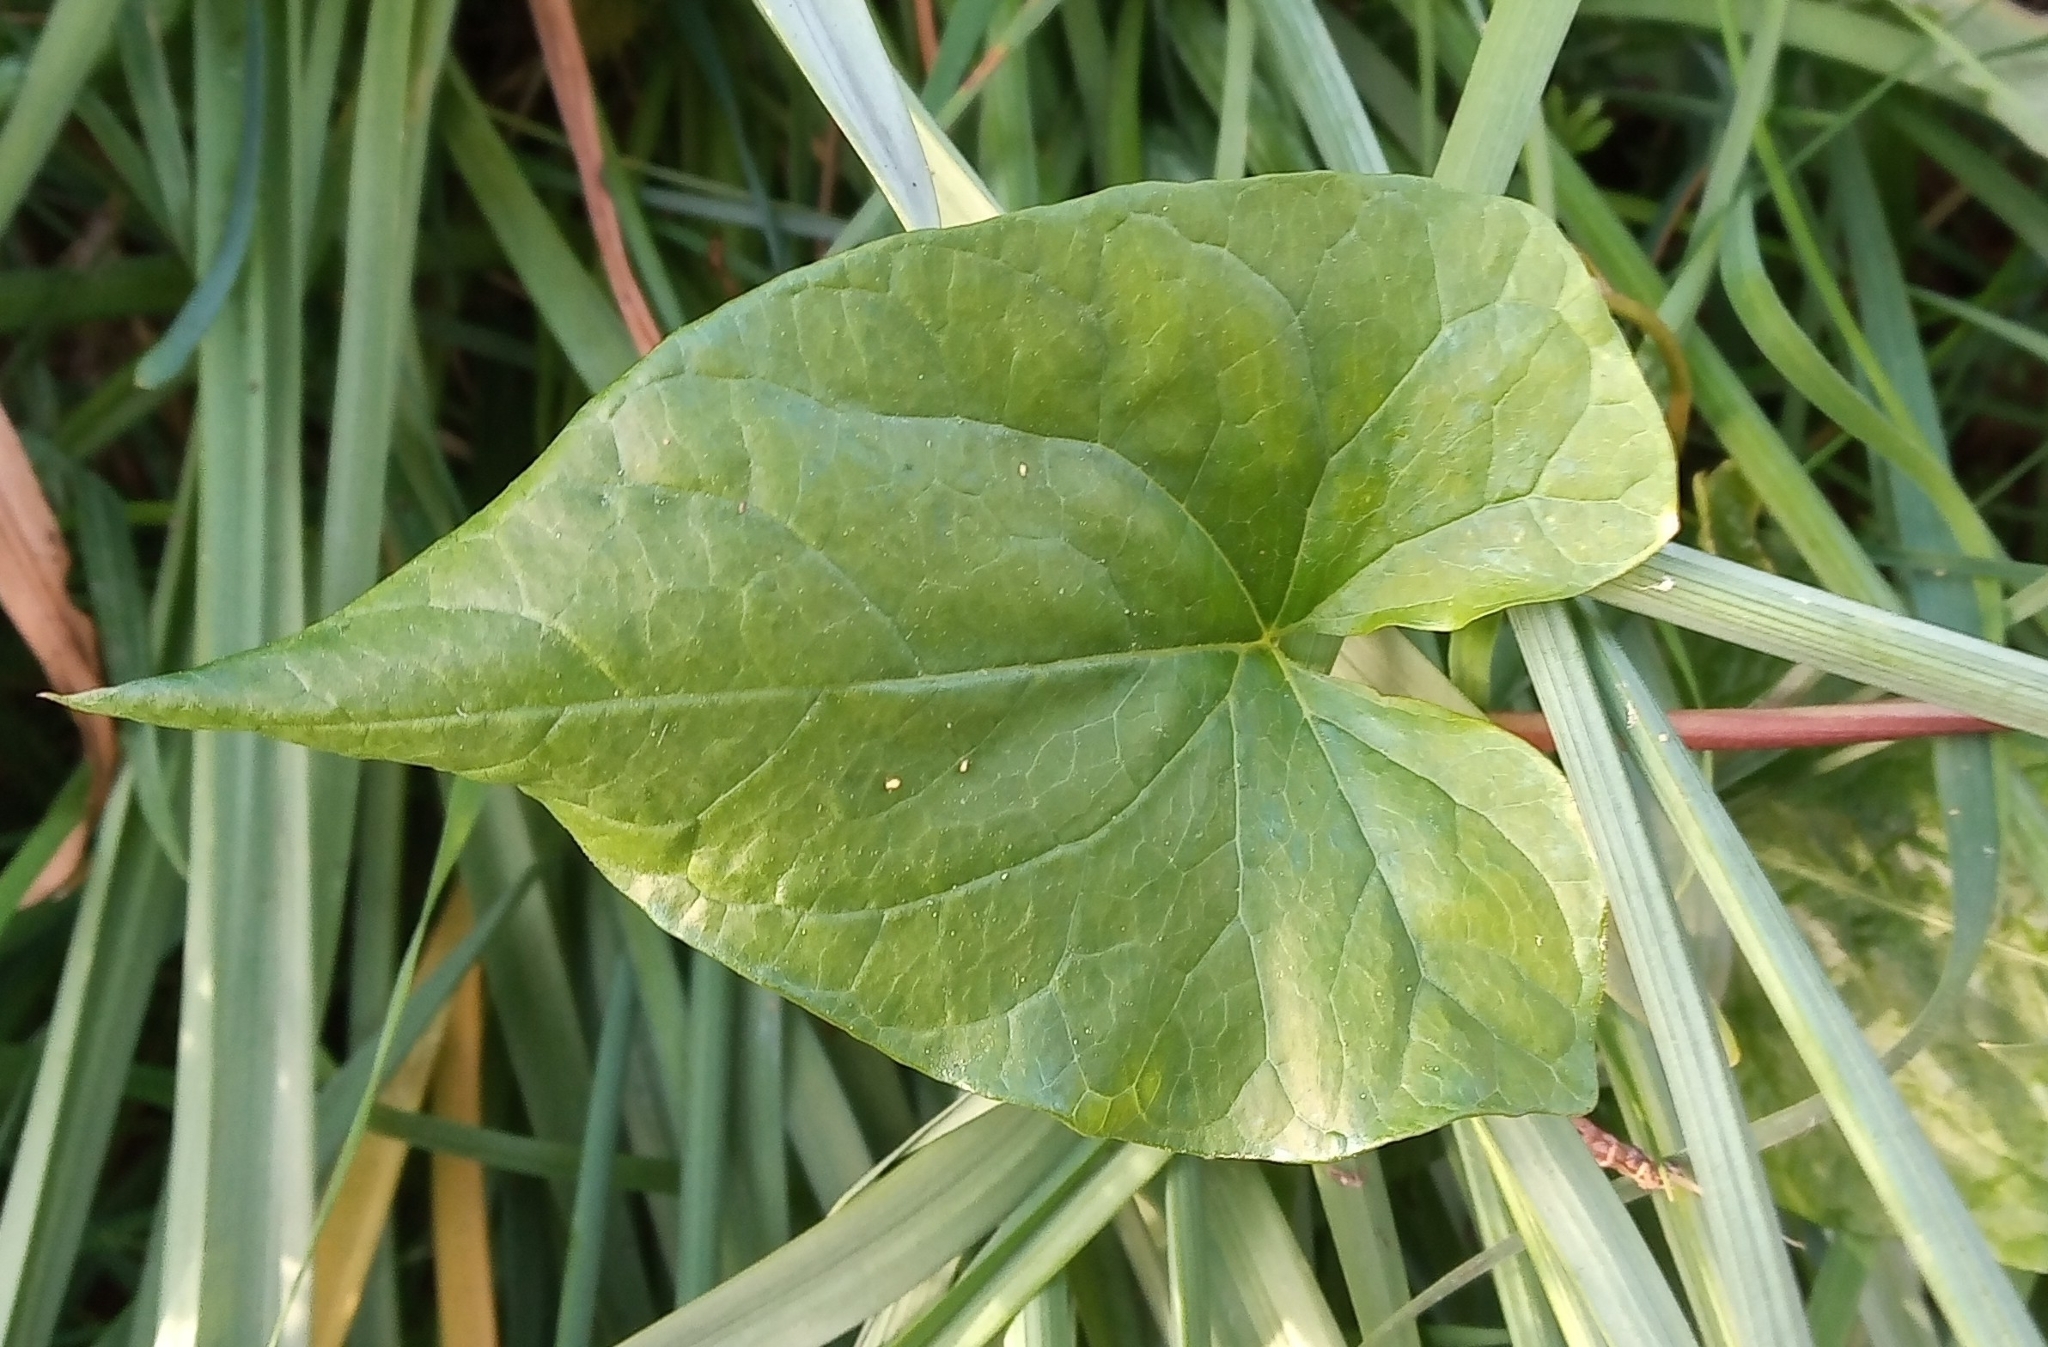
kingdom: Plantae
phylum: Tracheophyta
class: Magnoliopsida
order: Solanales
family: Convolvulaceae
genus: Calystegia
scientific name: Calystegia
